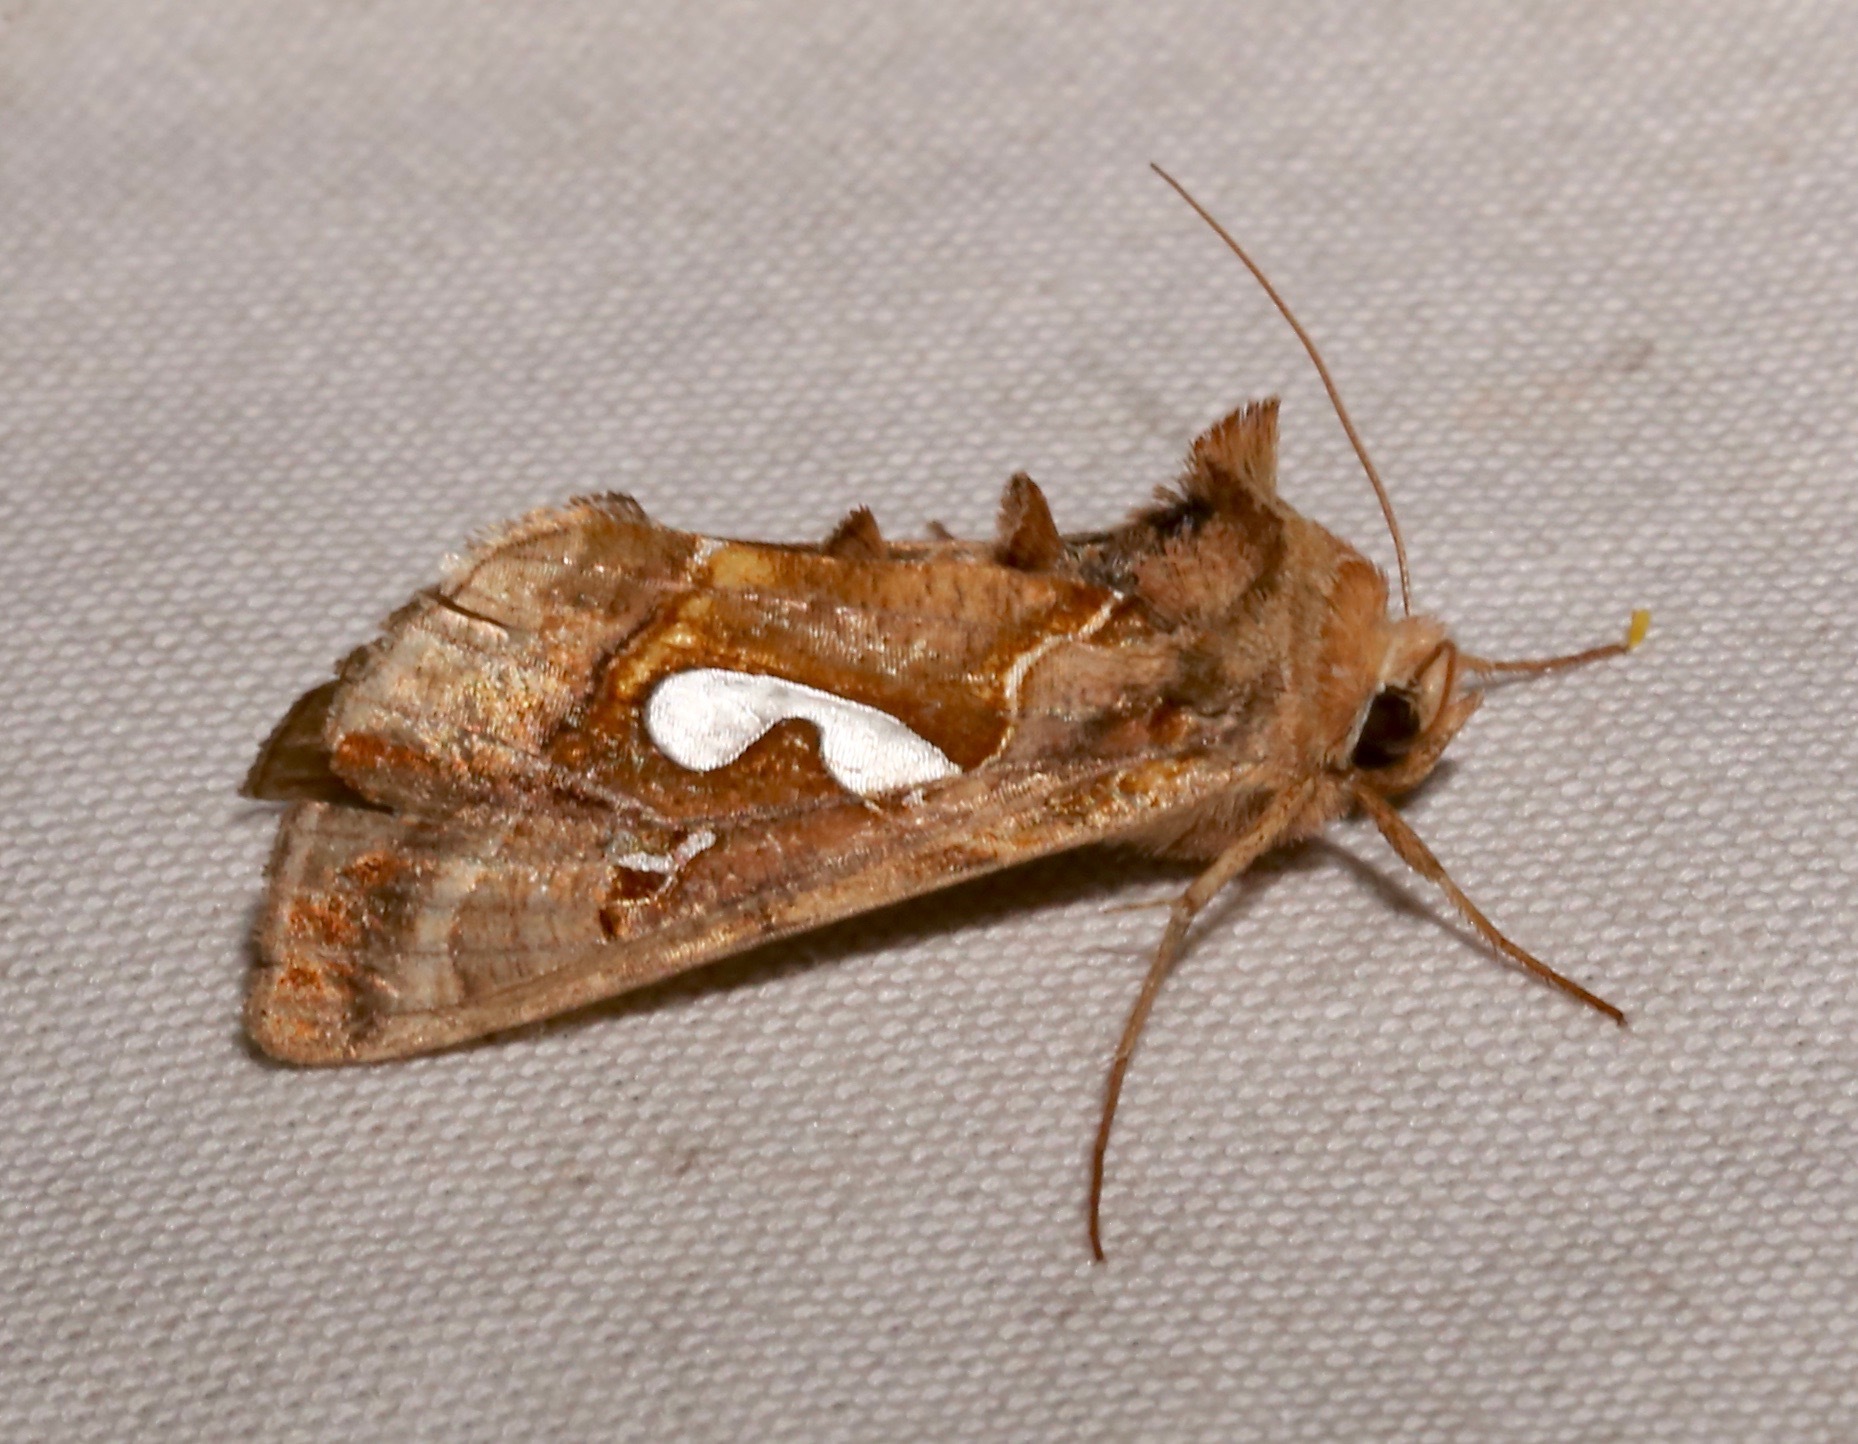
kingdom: Animalia
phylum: Arthropoda
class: Insecta
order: Lepidoptera
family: Noctuidae
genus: Megalographa
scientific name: Megalographa biloba
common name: Cutworm
